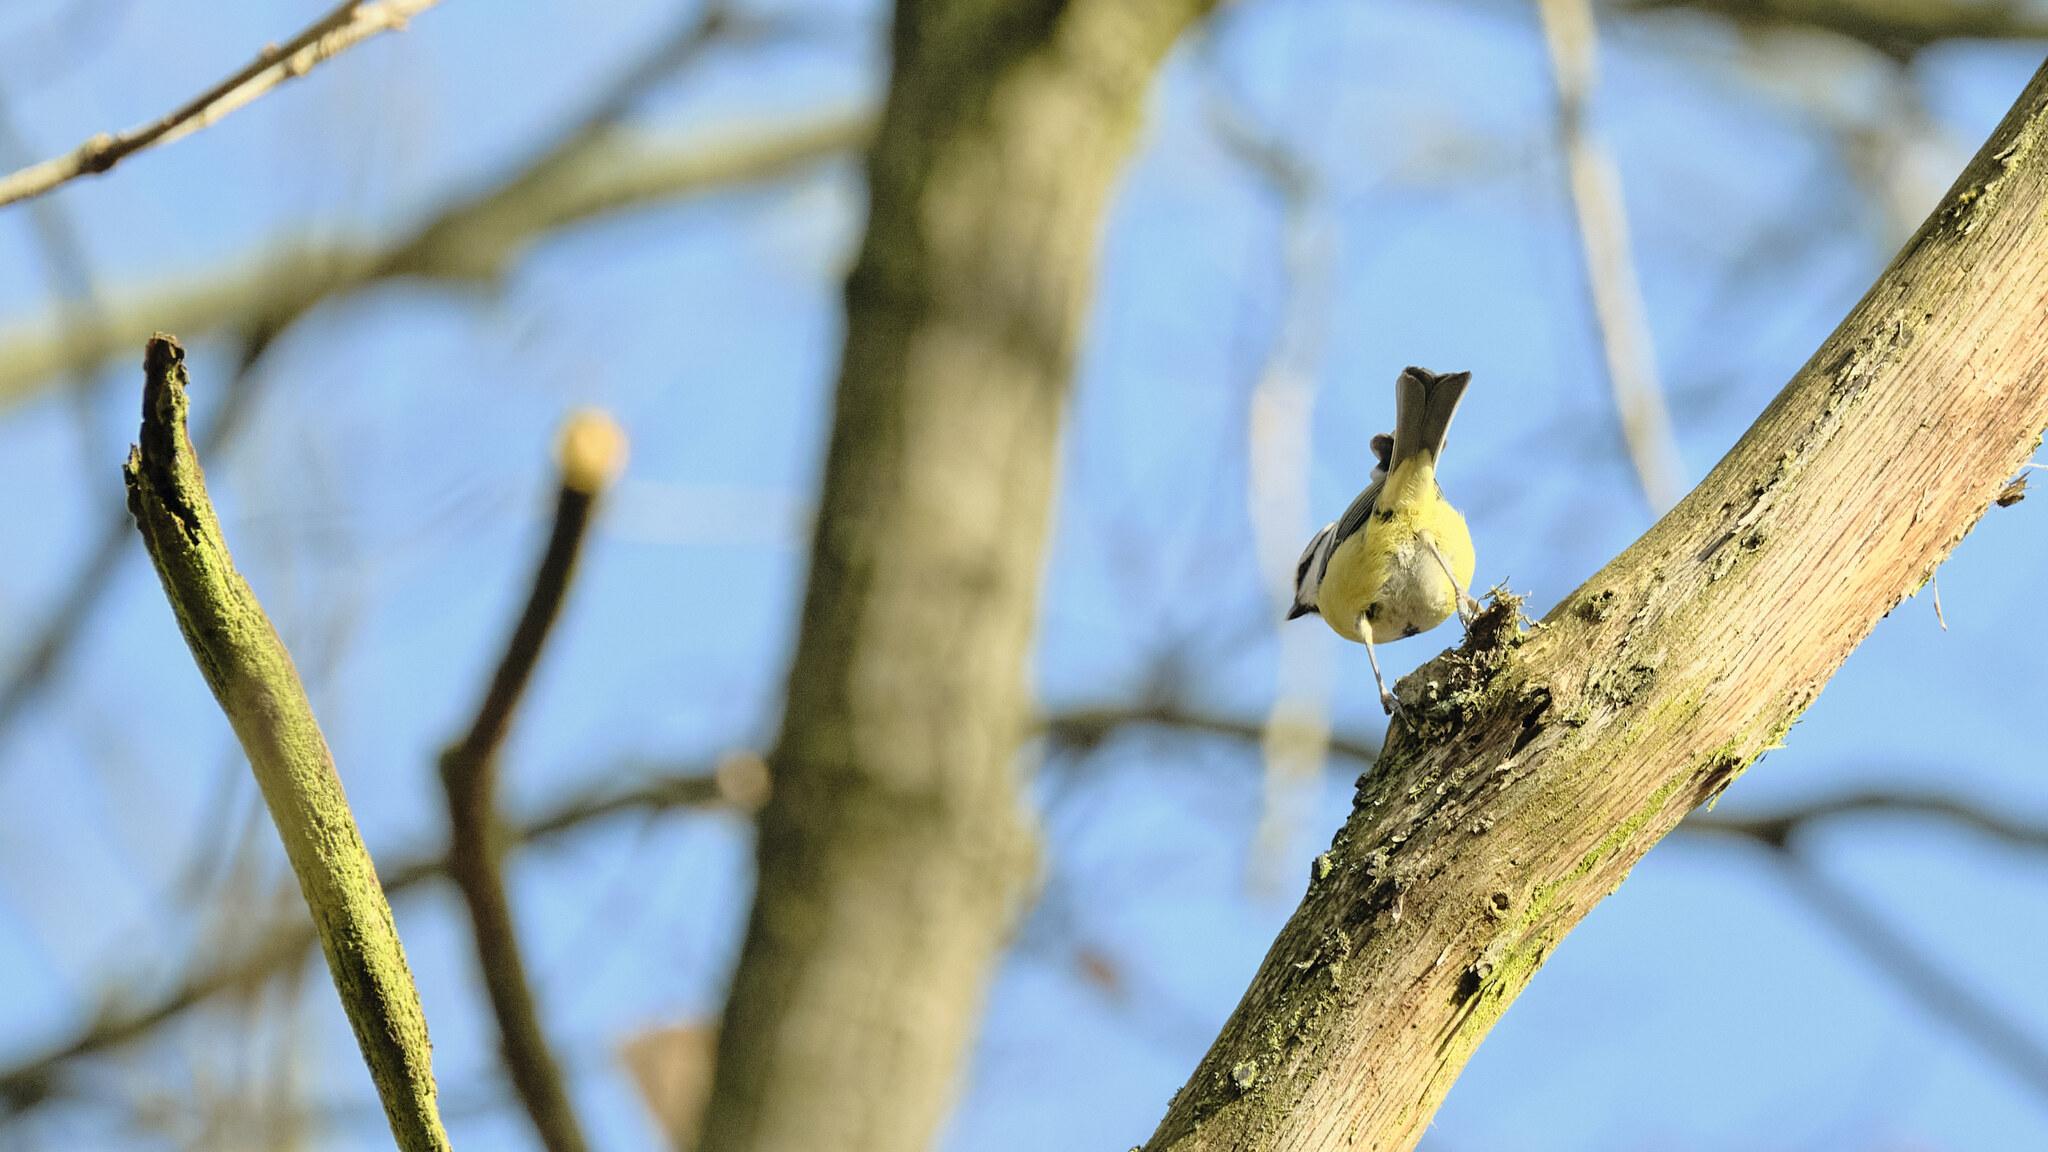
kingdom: Animalia
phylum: Chordata
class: Aves
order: Passeriformes
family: Paridae
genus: Cyanistes
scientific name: Cyanistes caeruleus
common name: Eurasian blue tit
